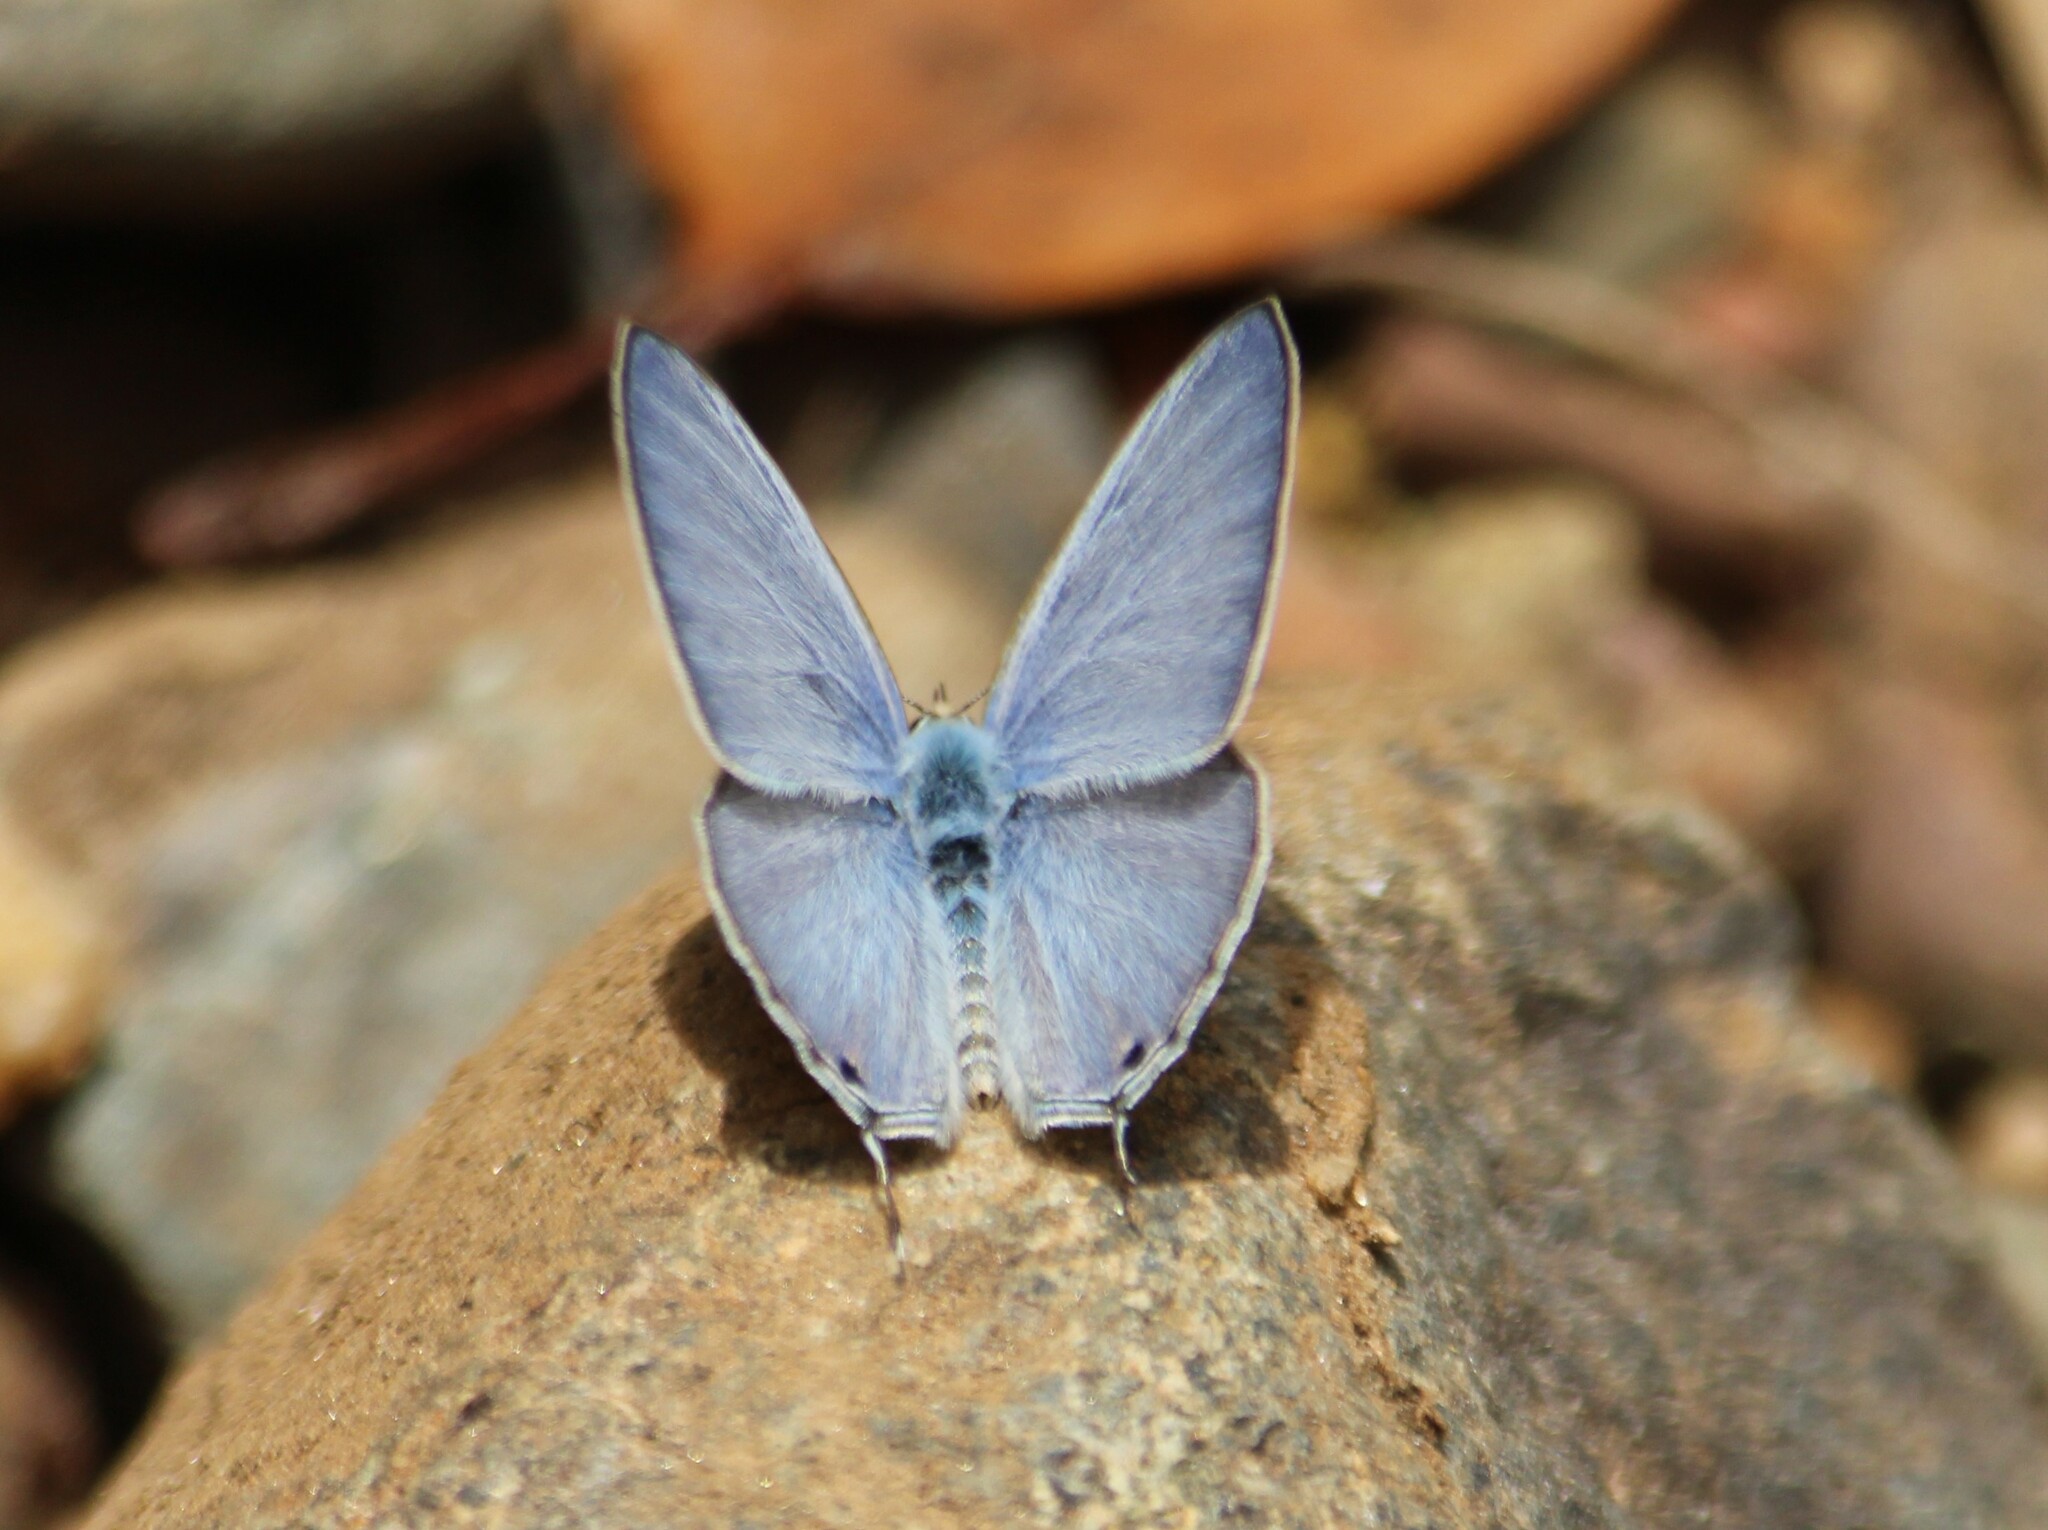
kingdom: Animalia
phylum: Arthropoda
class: Insecta
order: Lepidoptera
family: Lycaenidae
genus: Catochrysops
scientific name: Catochrysops strabo
